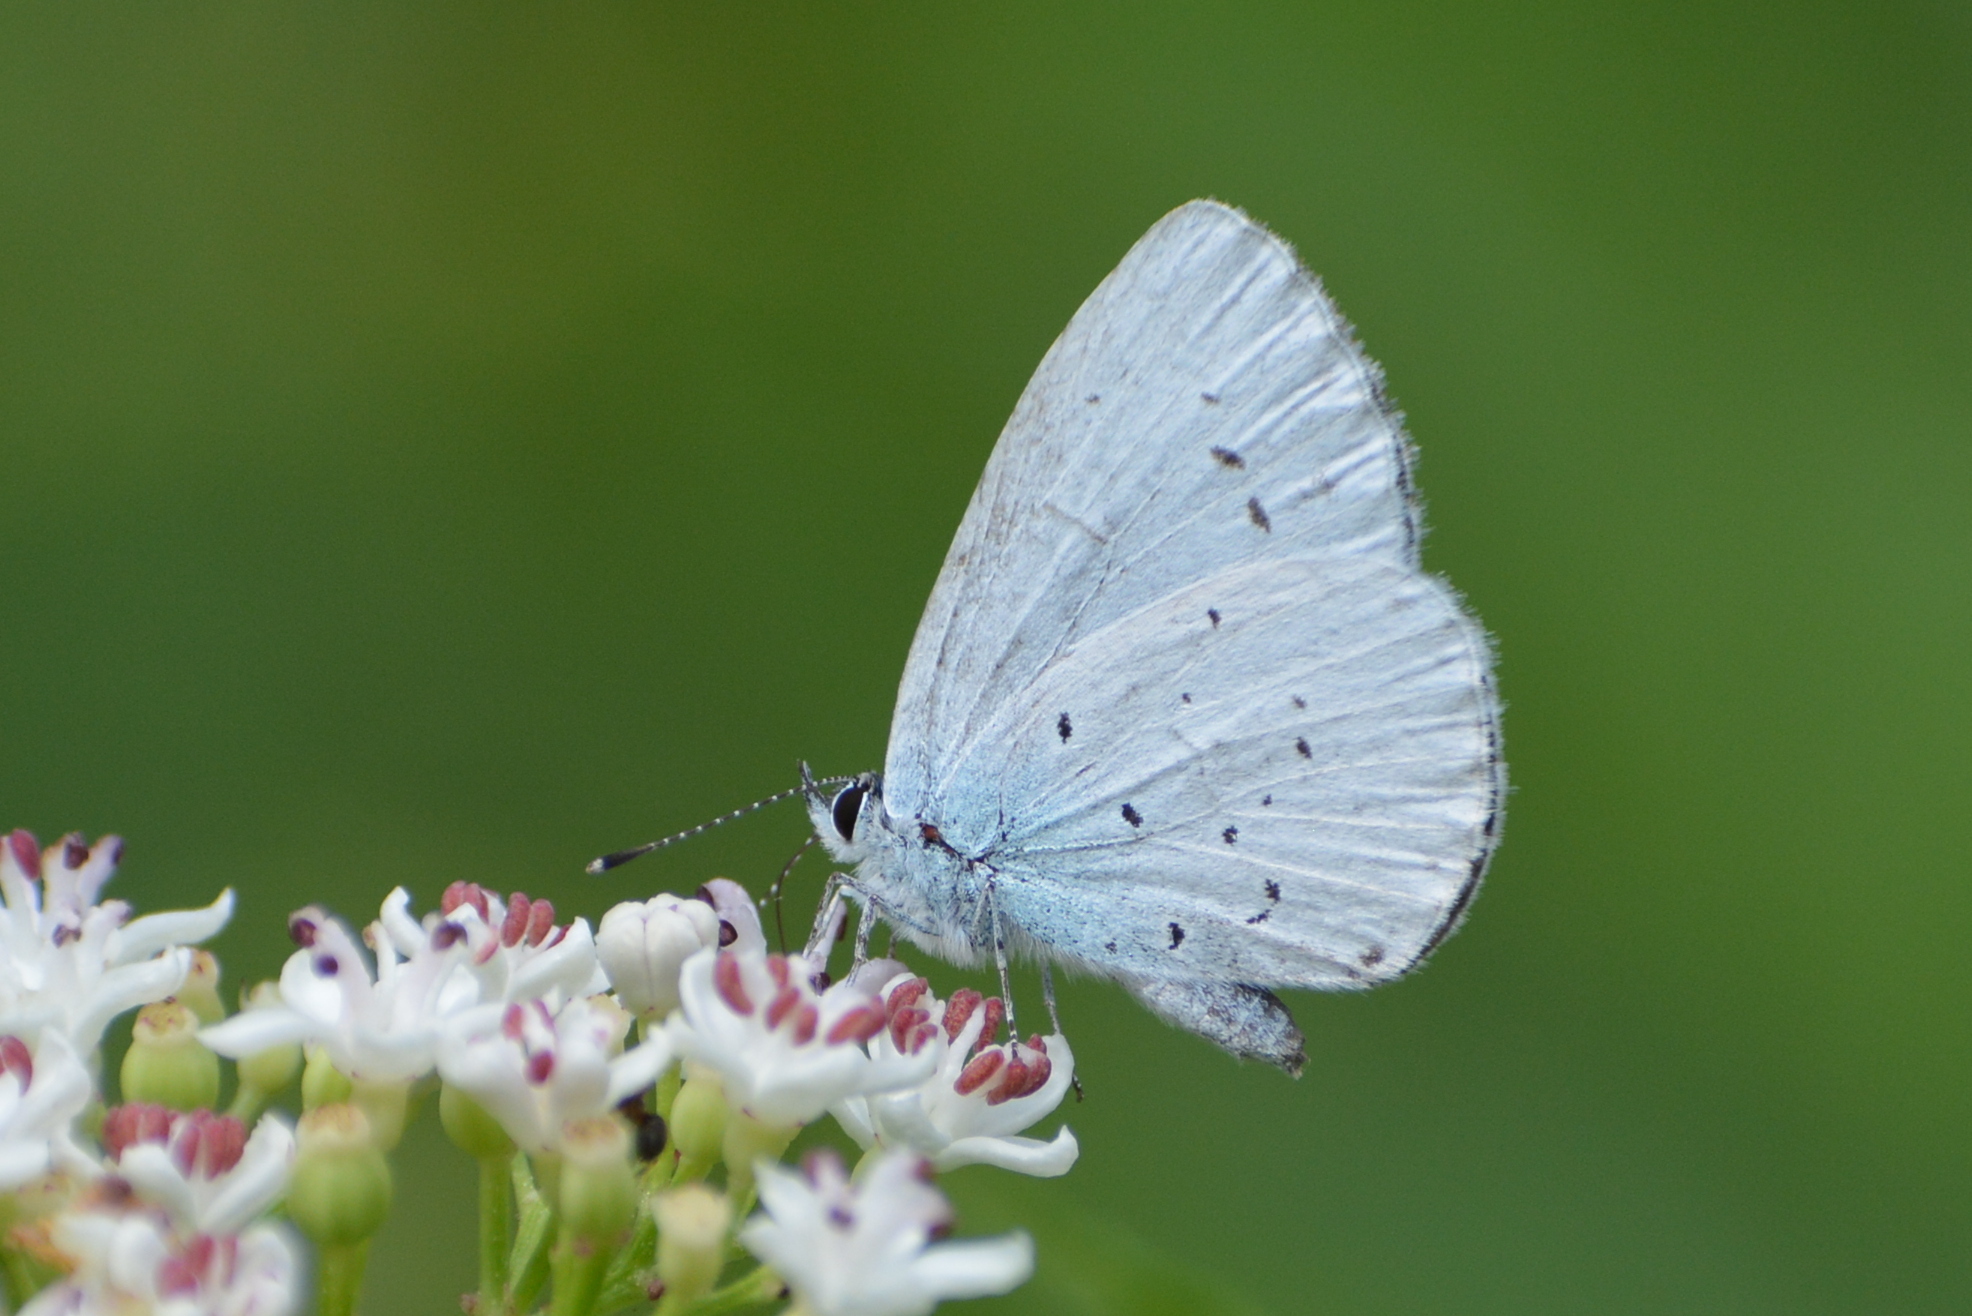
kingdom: Animalia
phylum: Arthropoda
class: Insecta
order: Lepidoptera
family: Lycaenidae
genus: Celastrina
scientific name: Celastrina argiolus
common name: Holly blue
